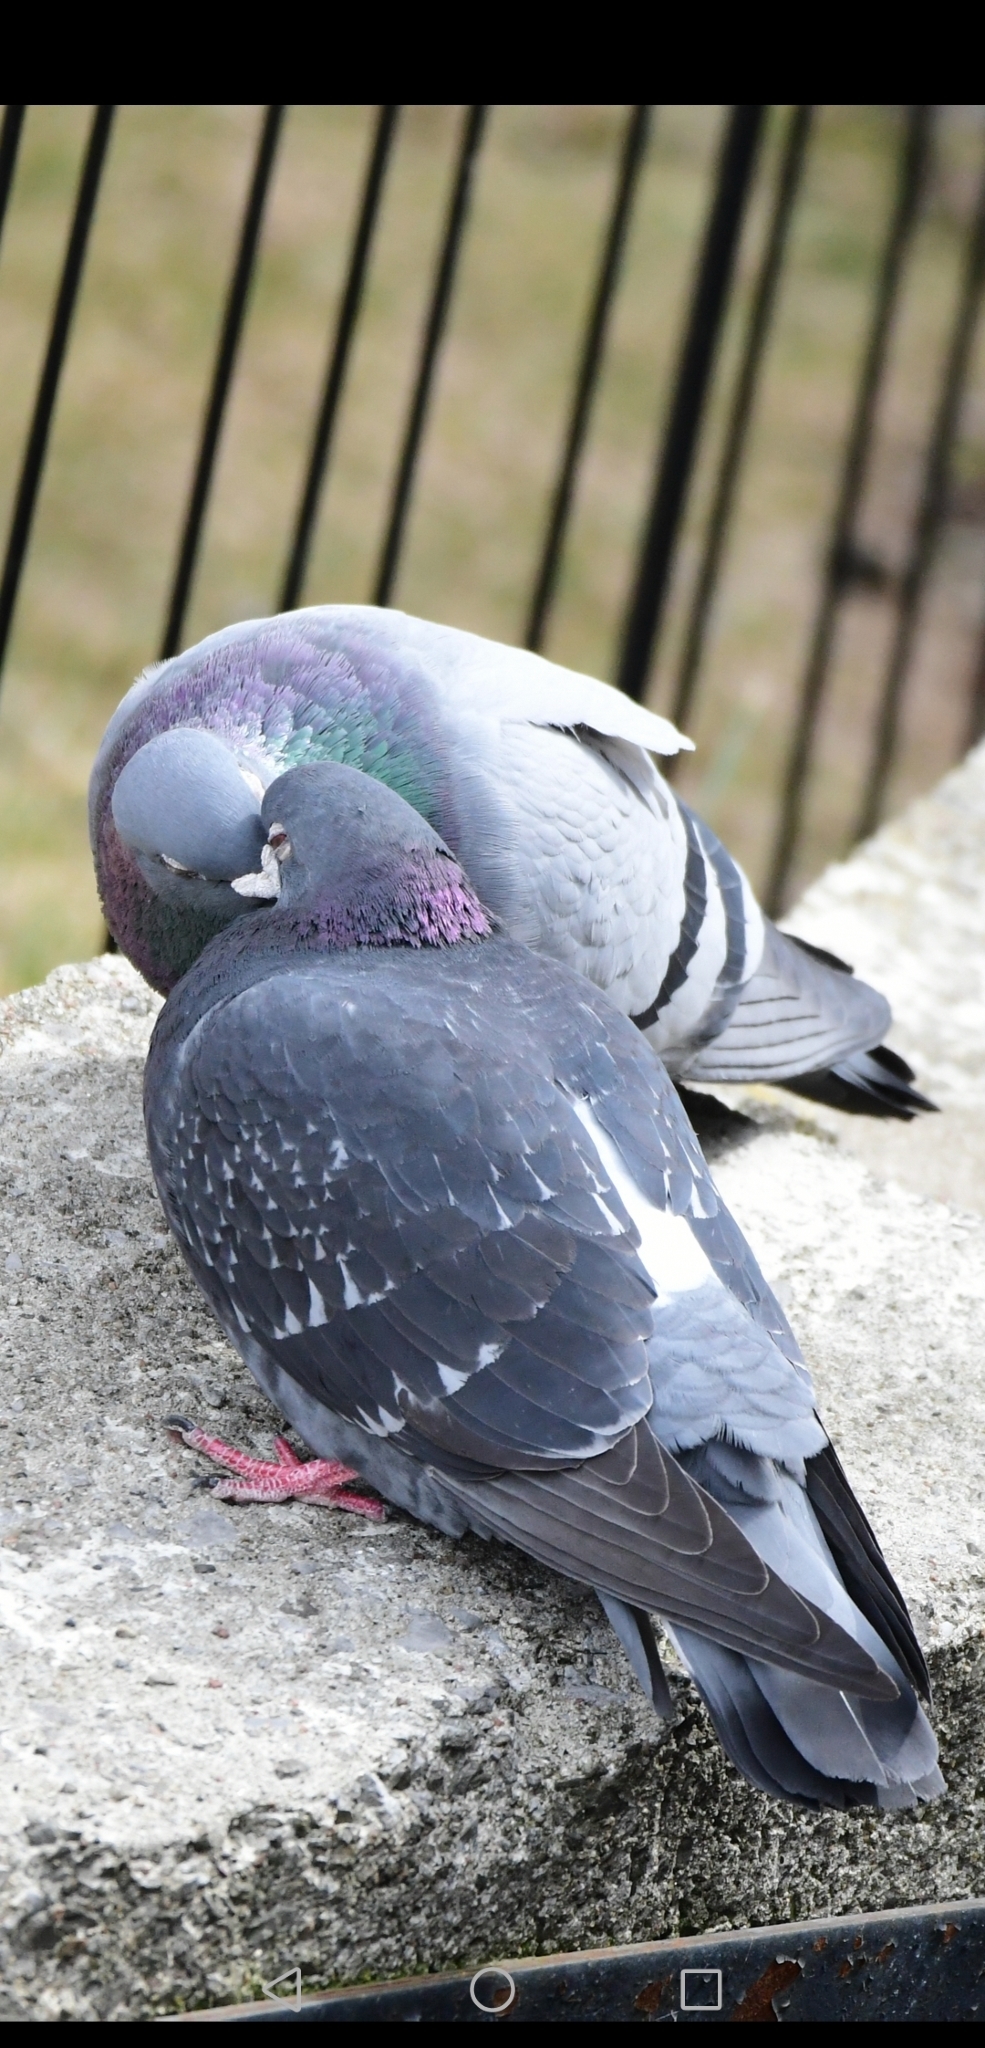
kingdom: Animalia
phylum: Chordata
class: Aves
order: Columbiformes
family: Columbidae
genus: Columba
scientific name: Columba livia
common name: Rock pigeon
